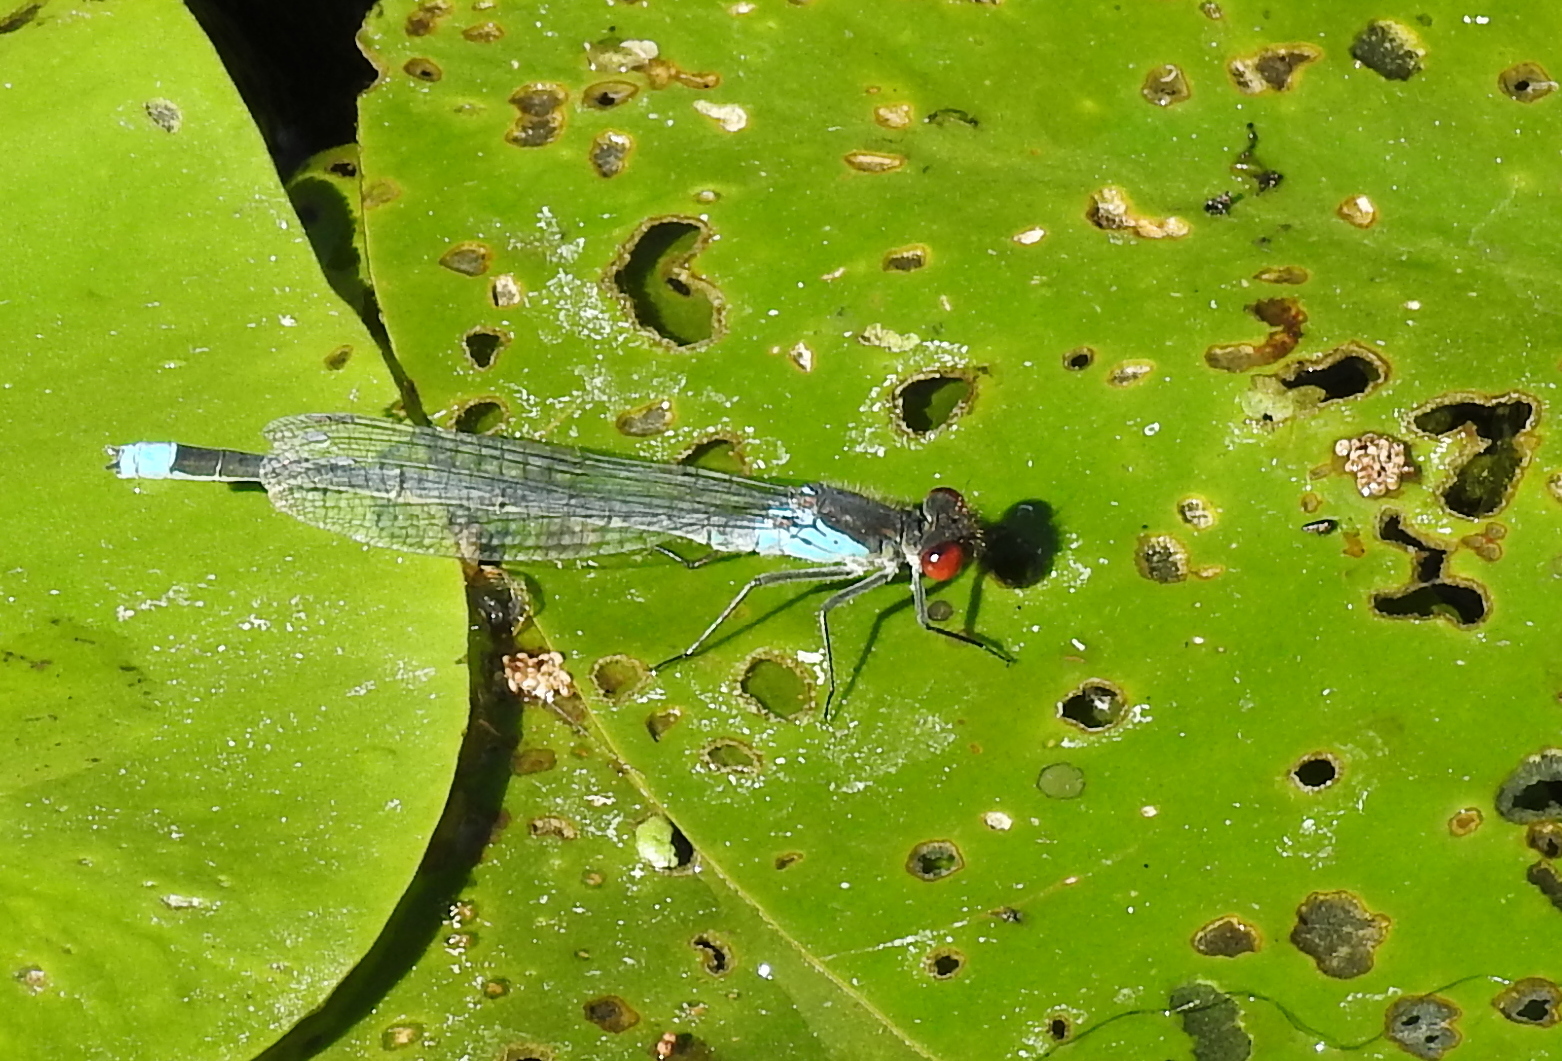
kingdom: Animalia
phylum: Arthropoda
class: Insecta
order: Odonata
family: Coenagrionidae
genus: Erythromma
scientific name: Erythromma najas
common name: Red-eyed damselfly
